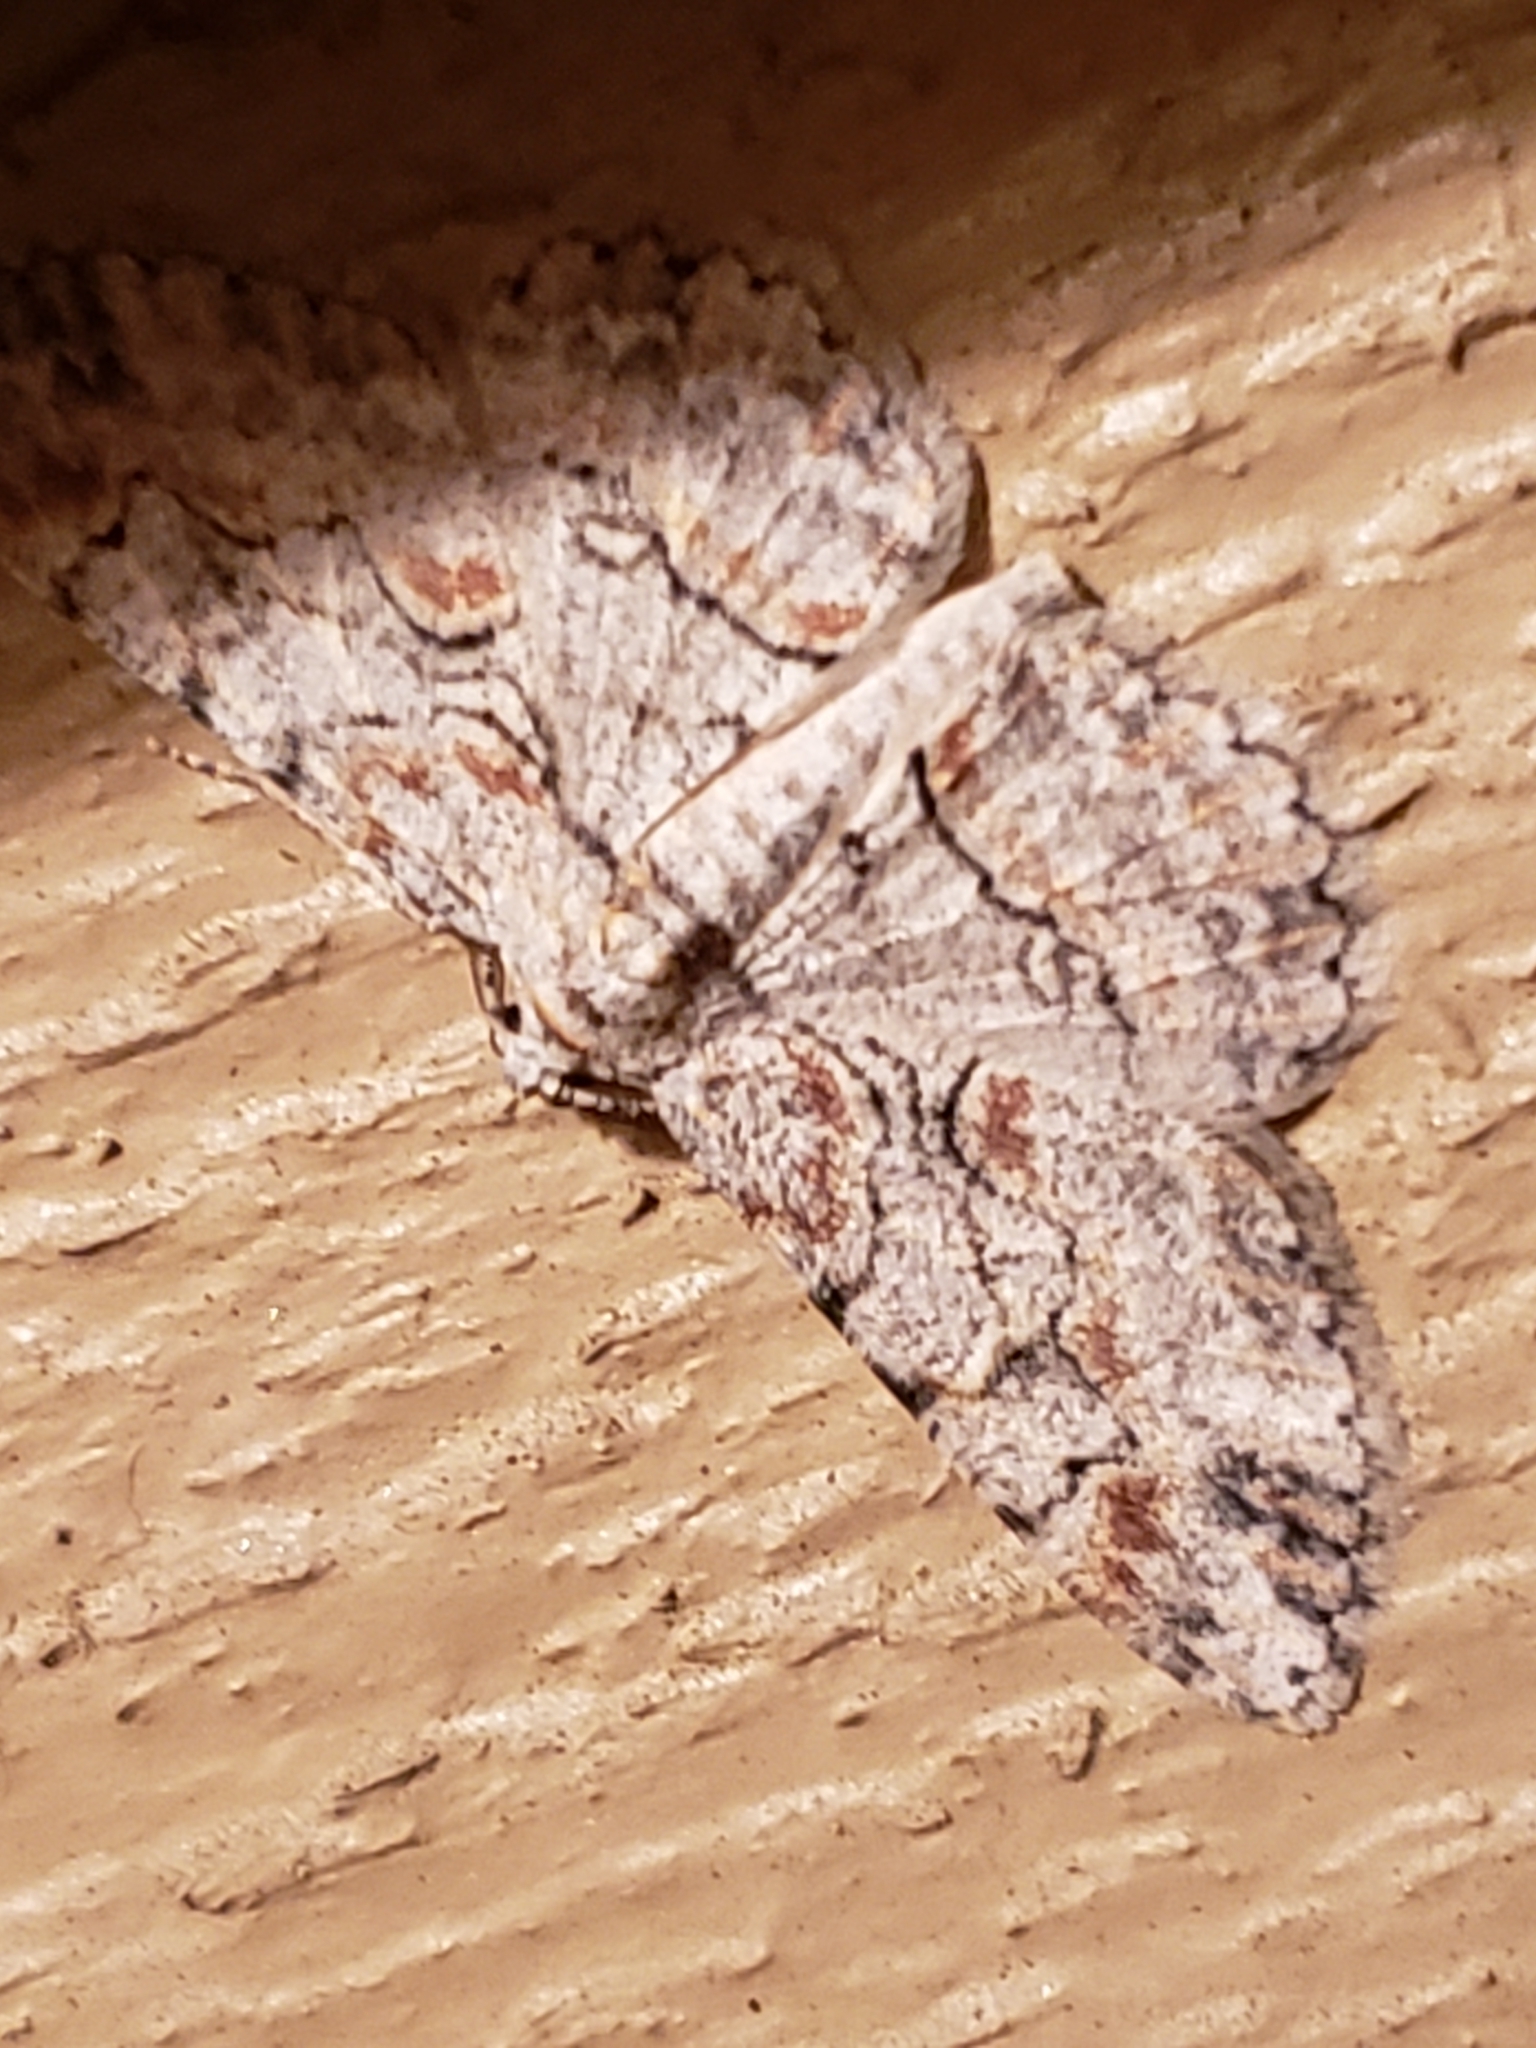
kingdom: Animalia
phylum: Arthropoda
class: Insecta
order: Lepidoptera
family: Geometridae
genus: Iridopsis
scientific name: Iridopsis defectaria
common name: Brown-shaded gray
